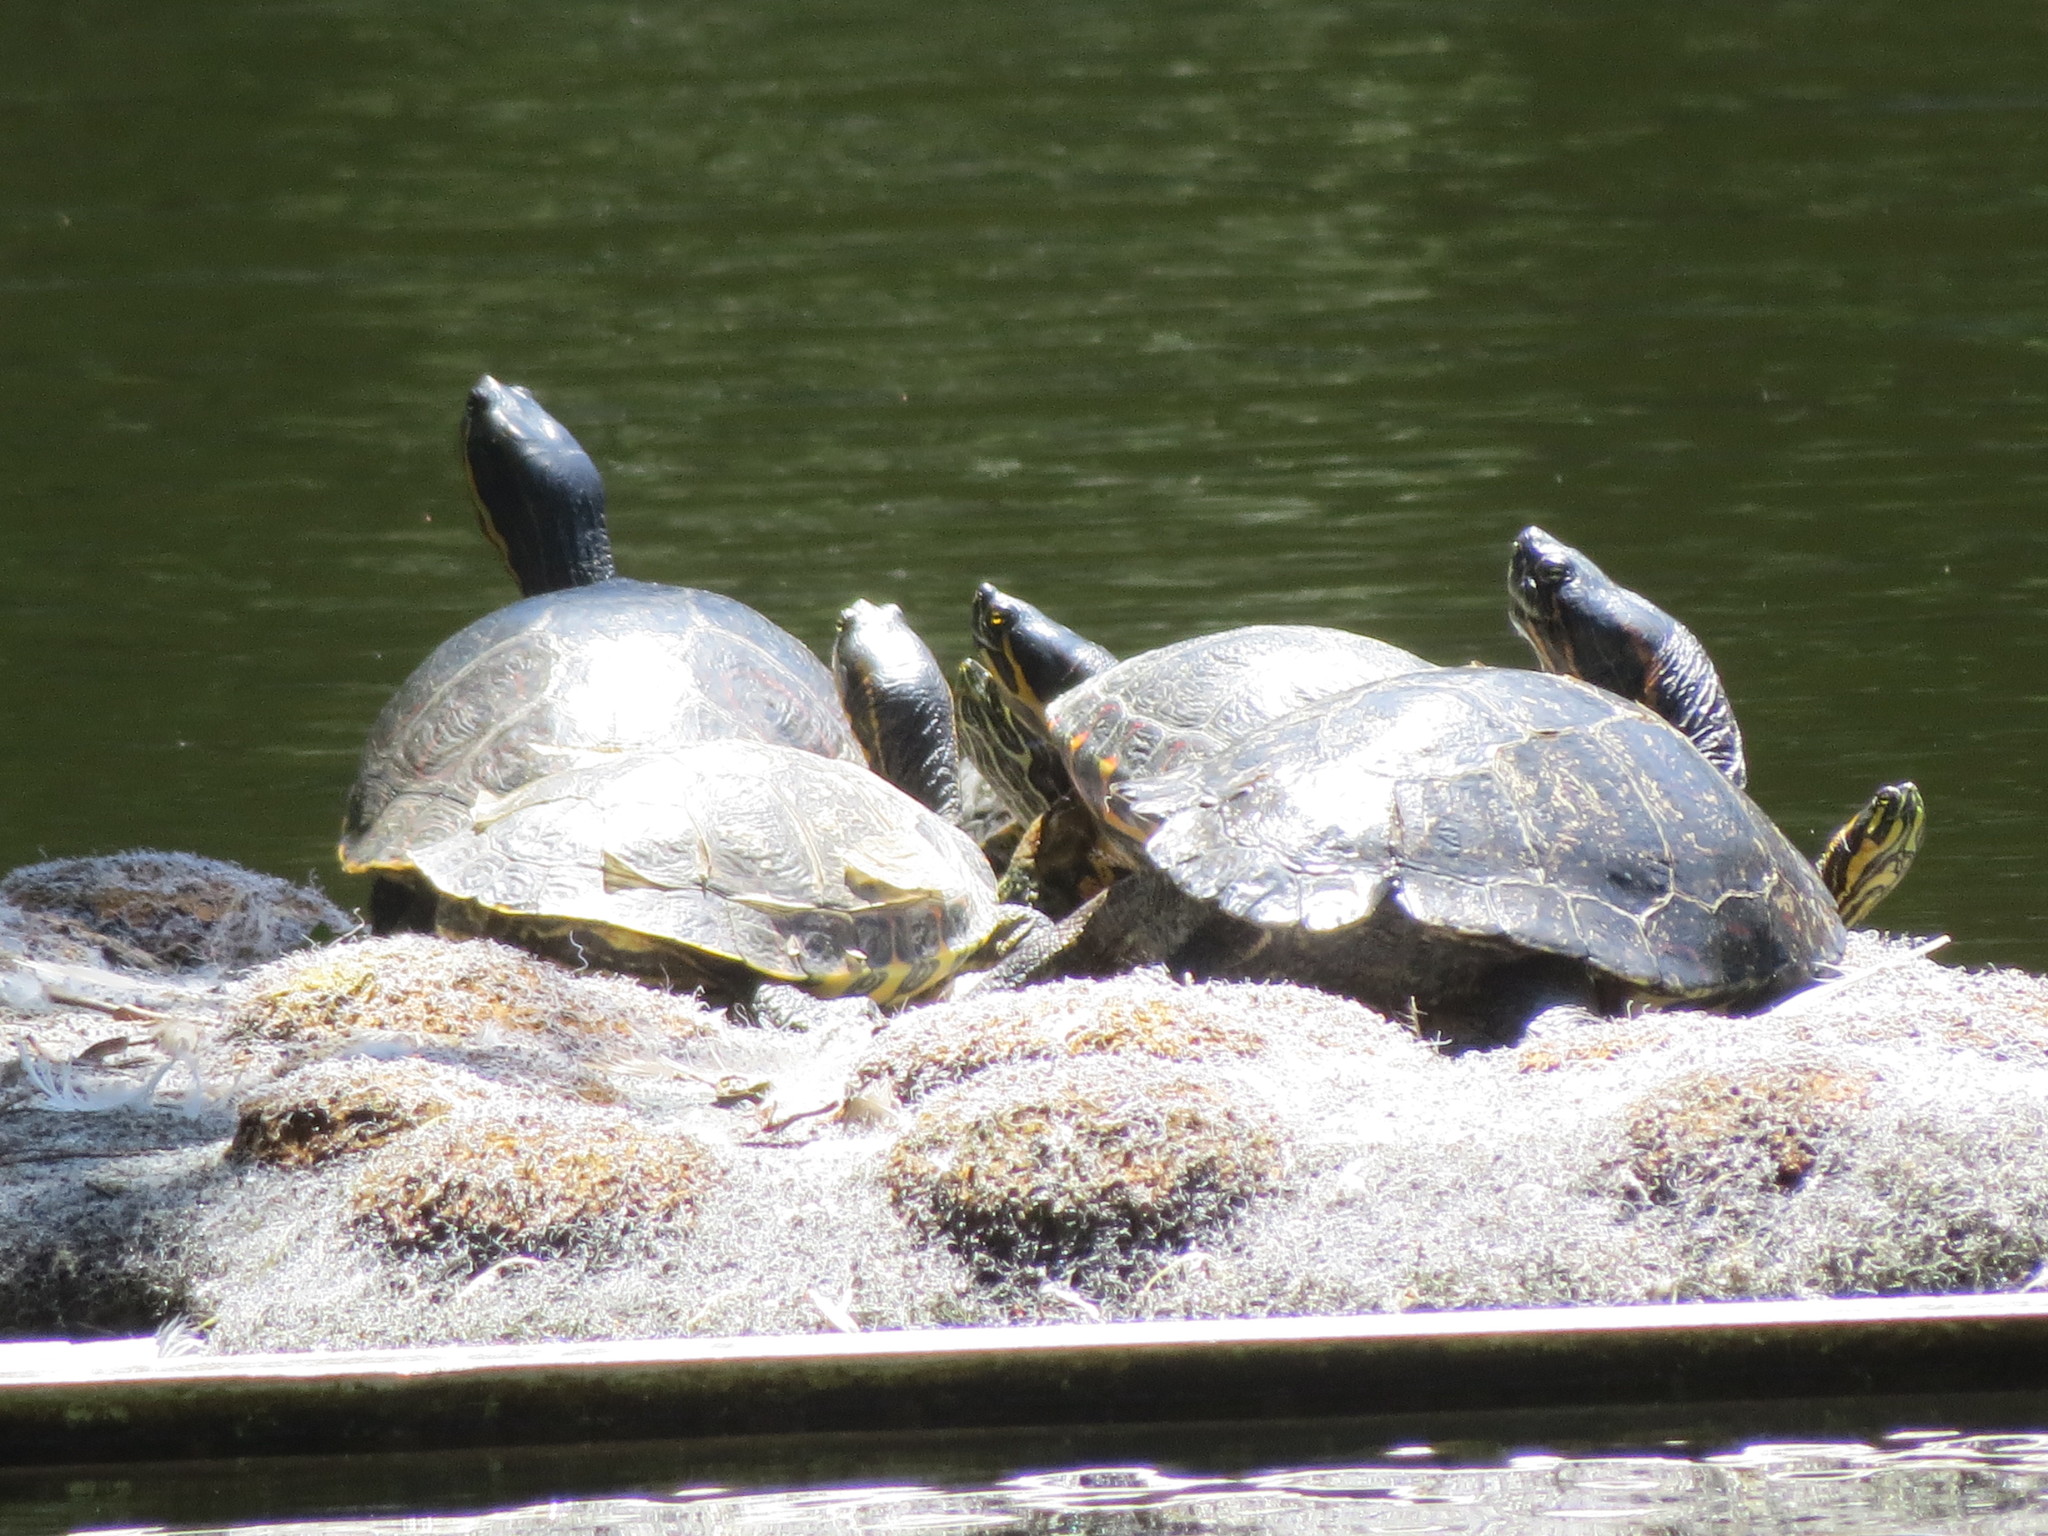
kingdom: Animalia
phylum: Chordata
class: Testudines
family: Emydidae
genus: Trachemys
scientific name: Trachemys venusta
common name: Mesoamerican slider
